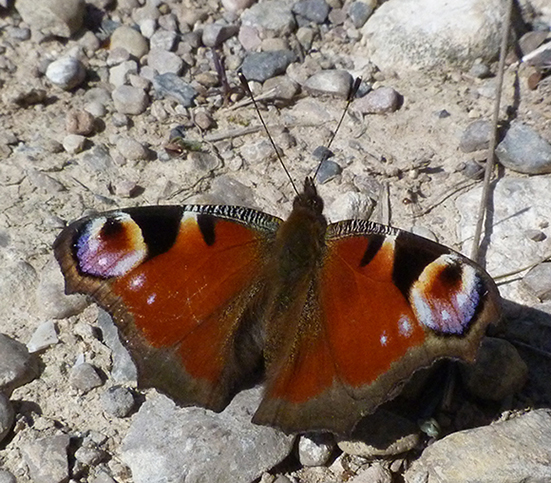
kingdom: Animalia
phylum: Arthropoda
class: Insecta
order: Lepidoptera
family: Nymphalidae
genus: Aglais
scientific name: Aglais io
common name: Peacock
